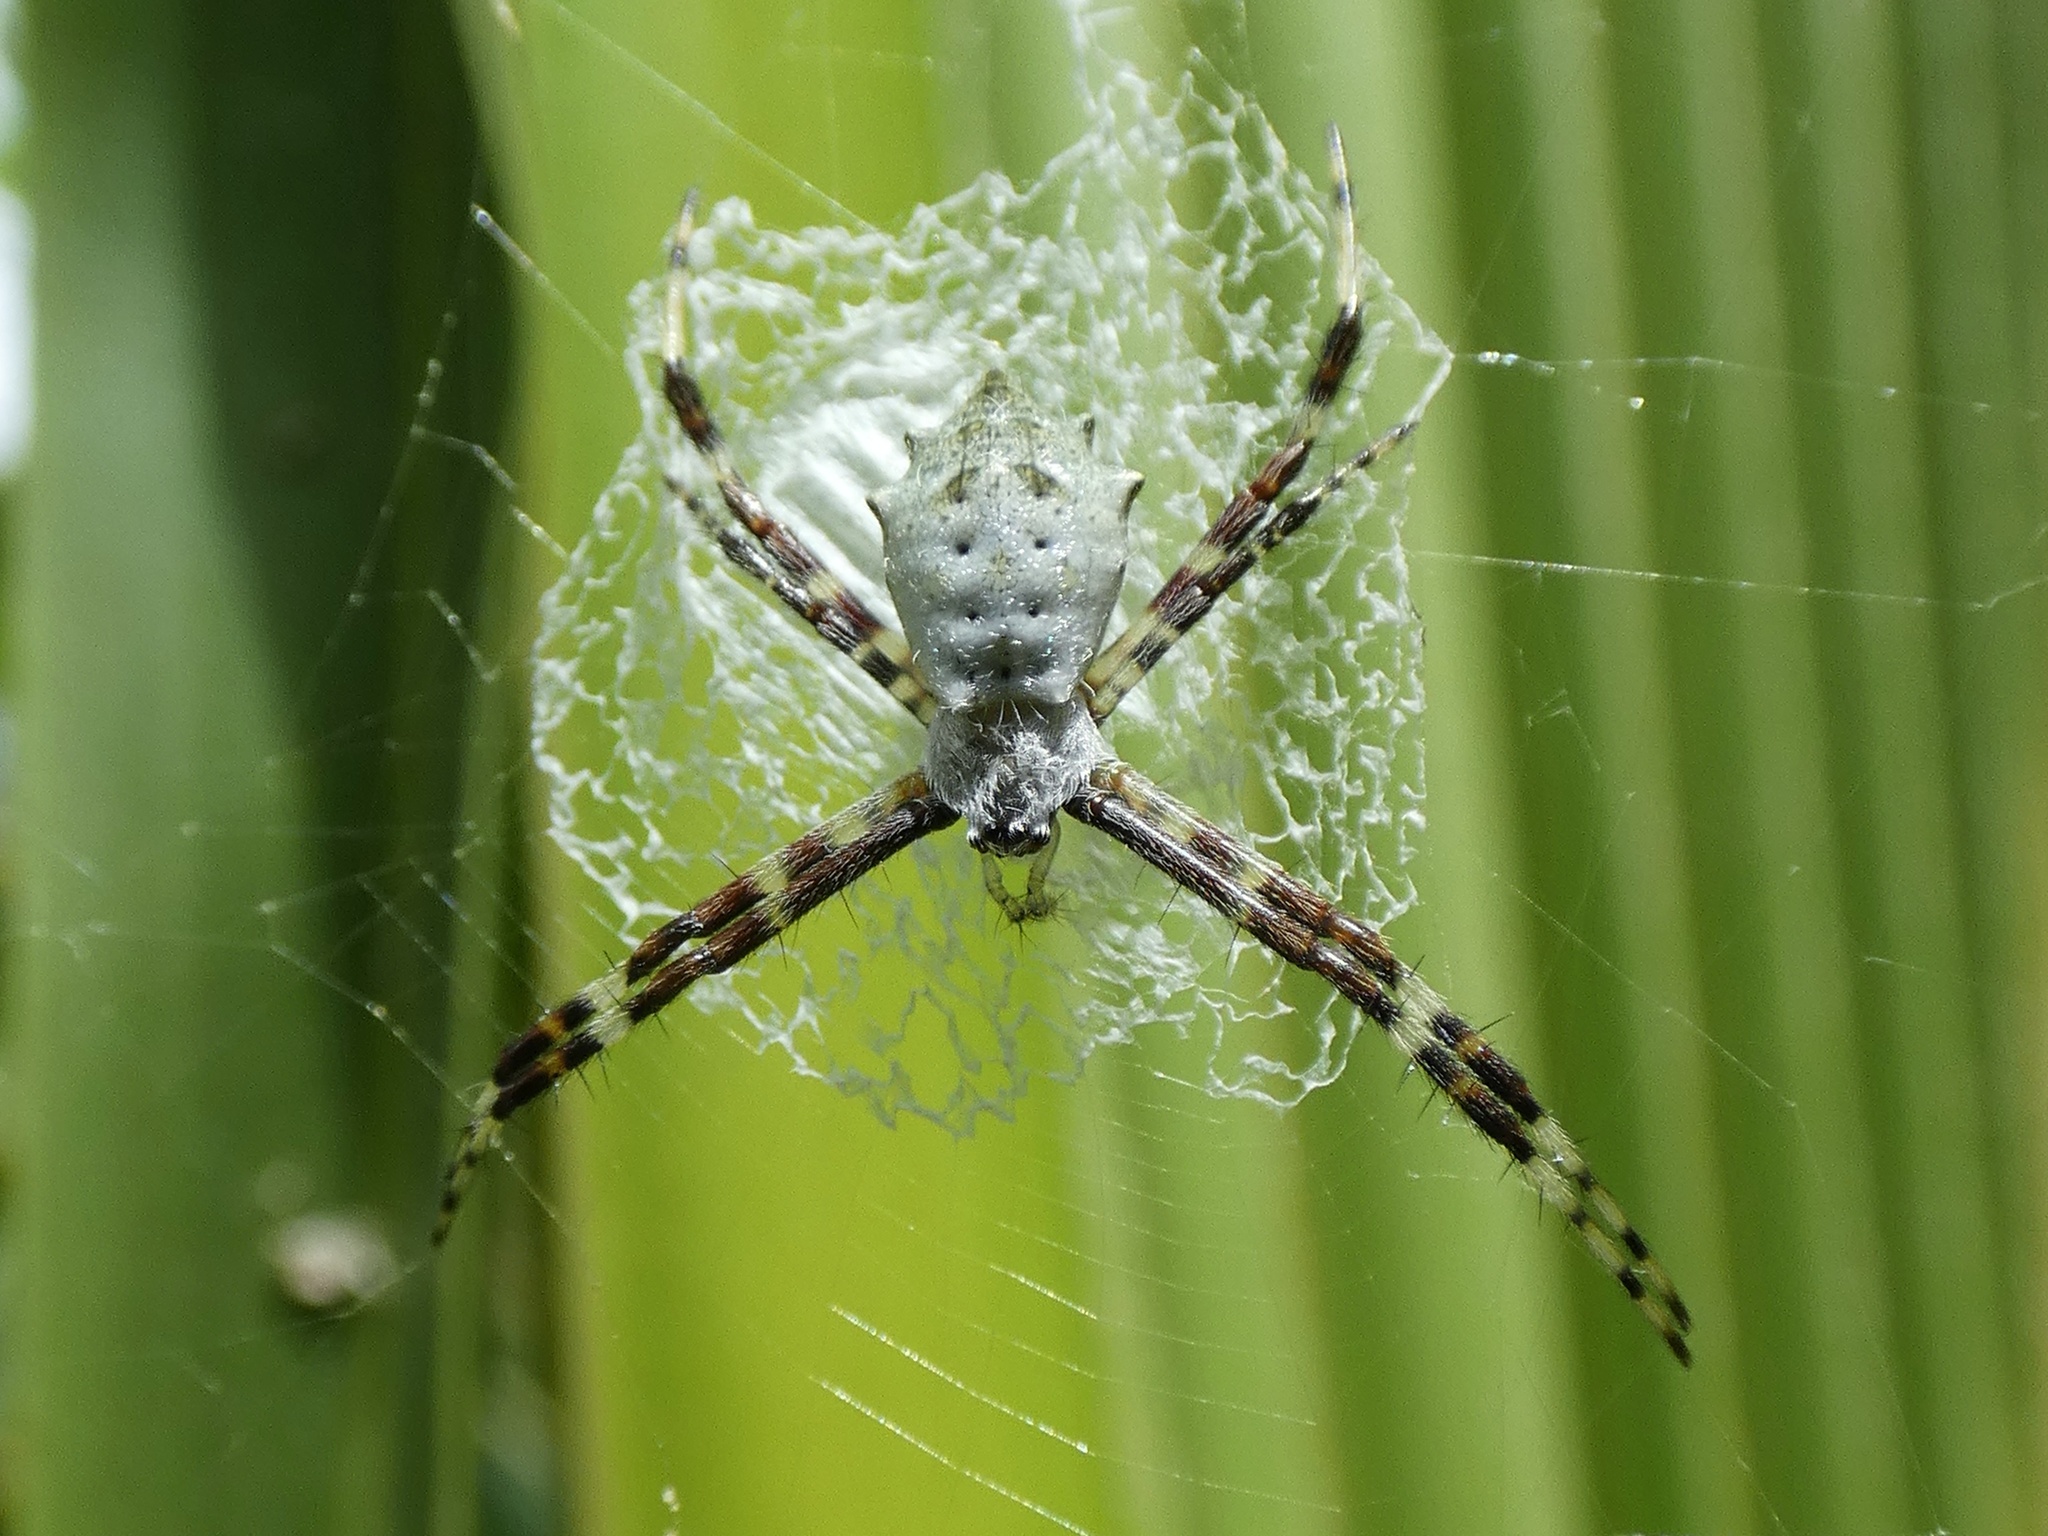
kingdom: Animalia
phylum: Arthropoda
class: Arachnida
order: Araneae
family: Araneidae
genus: Argiope
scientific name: Argiope submaronica
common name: Orb weavers
